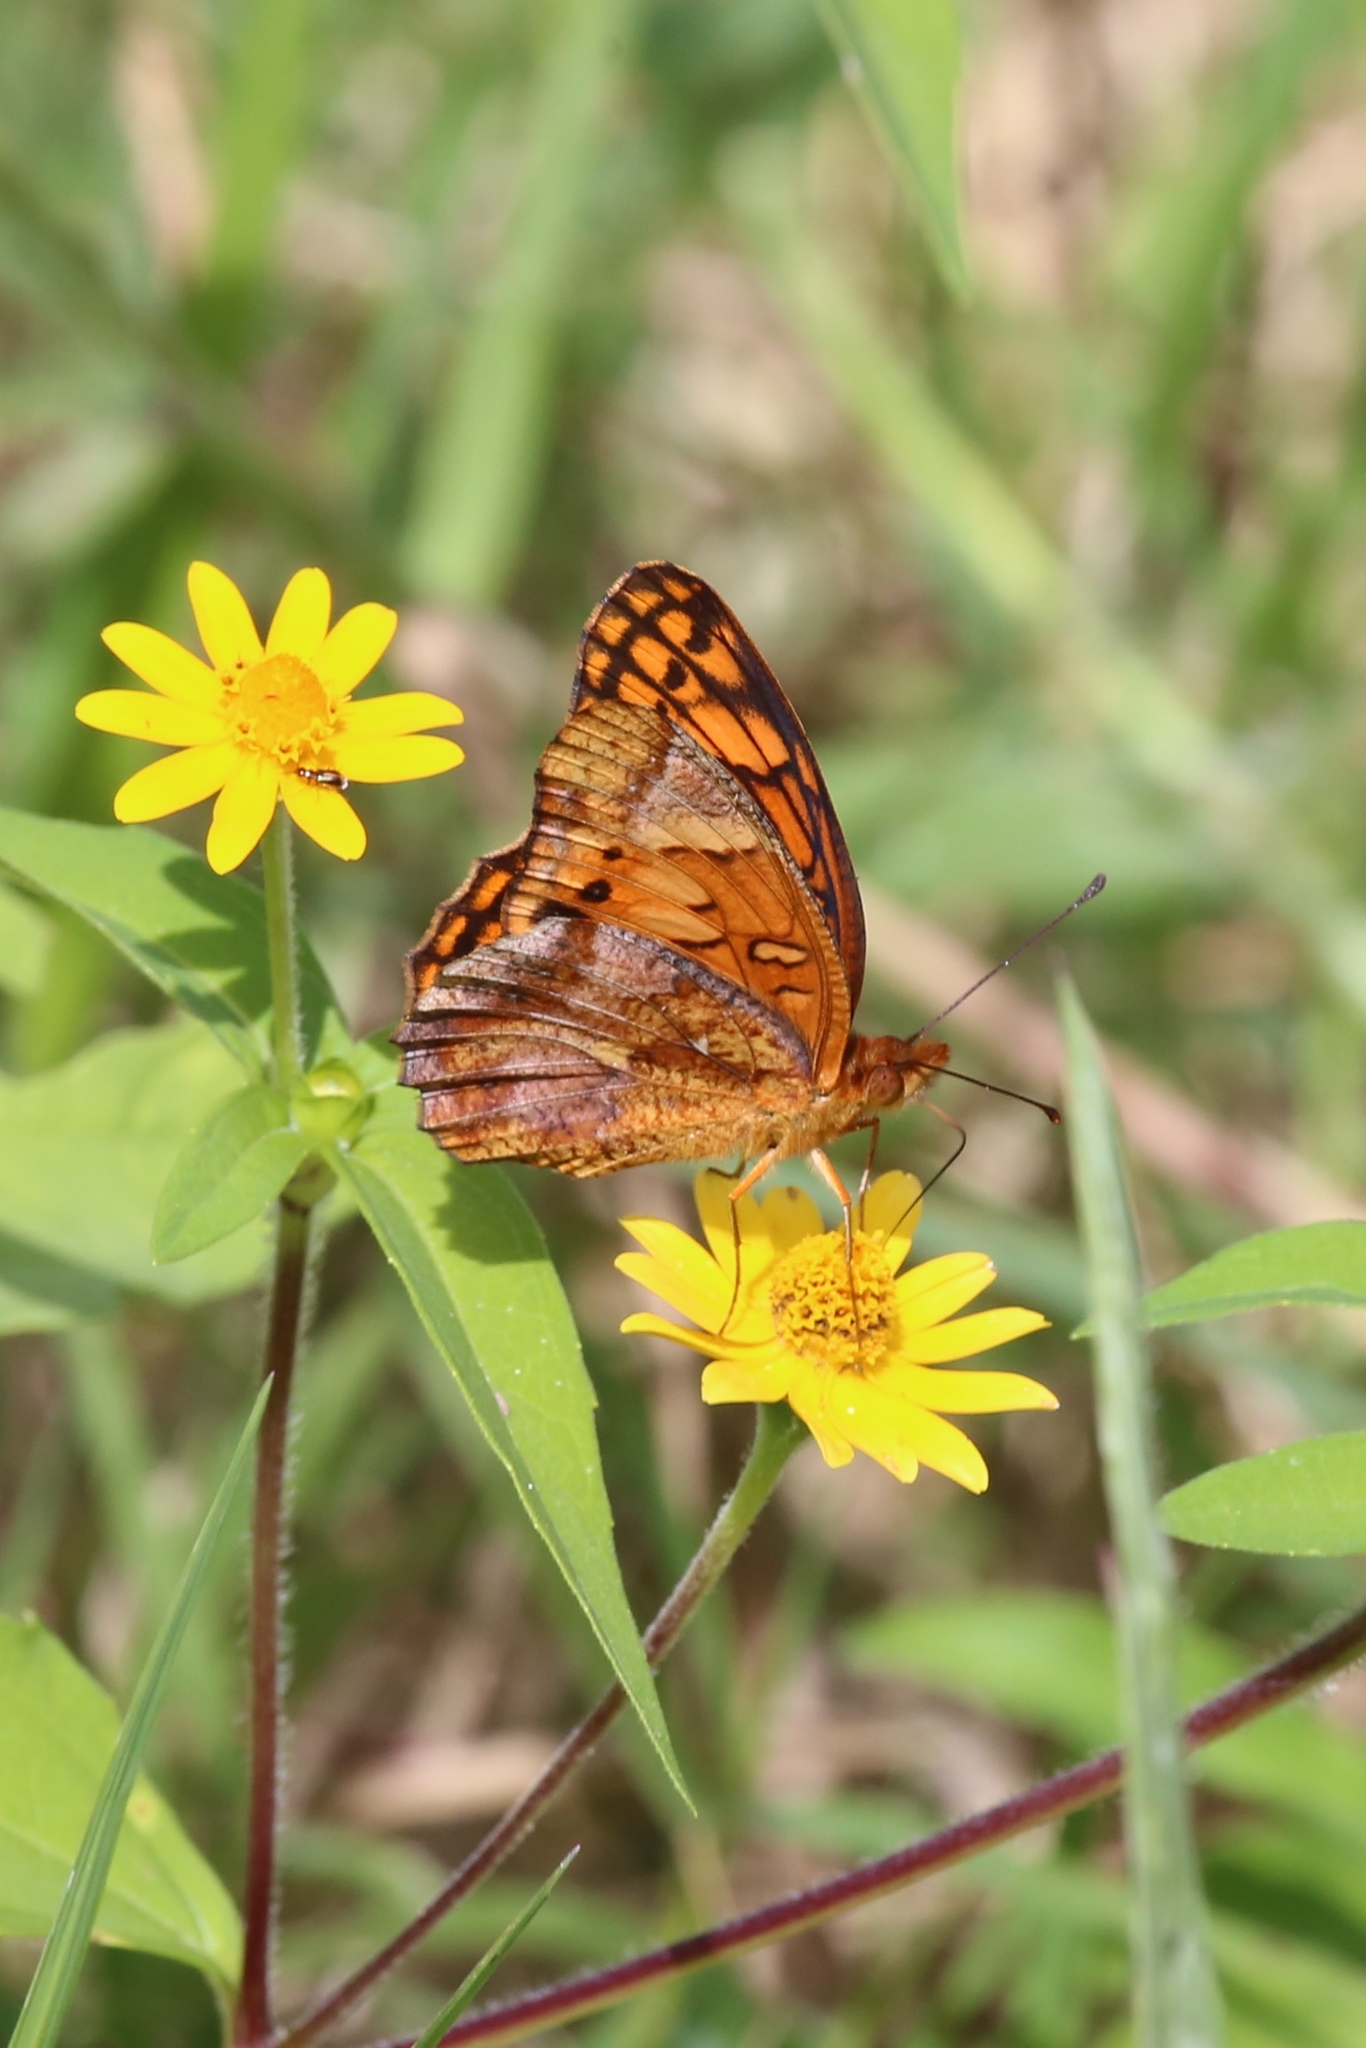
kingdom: Animalia
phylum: Arthropoda
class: Insecta
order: Lepidoptera
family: Nymphalidae
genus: Euptoieta
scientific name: Euptoieta hegesia
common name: Mexican fritillary
